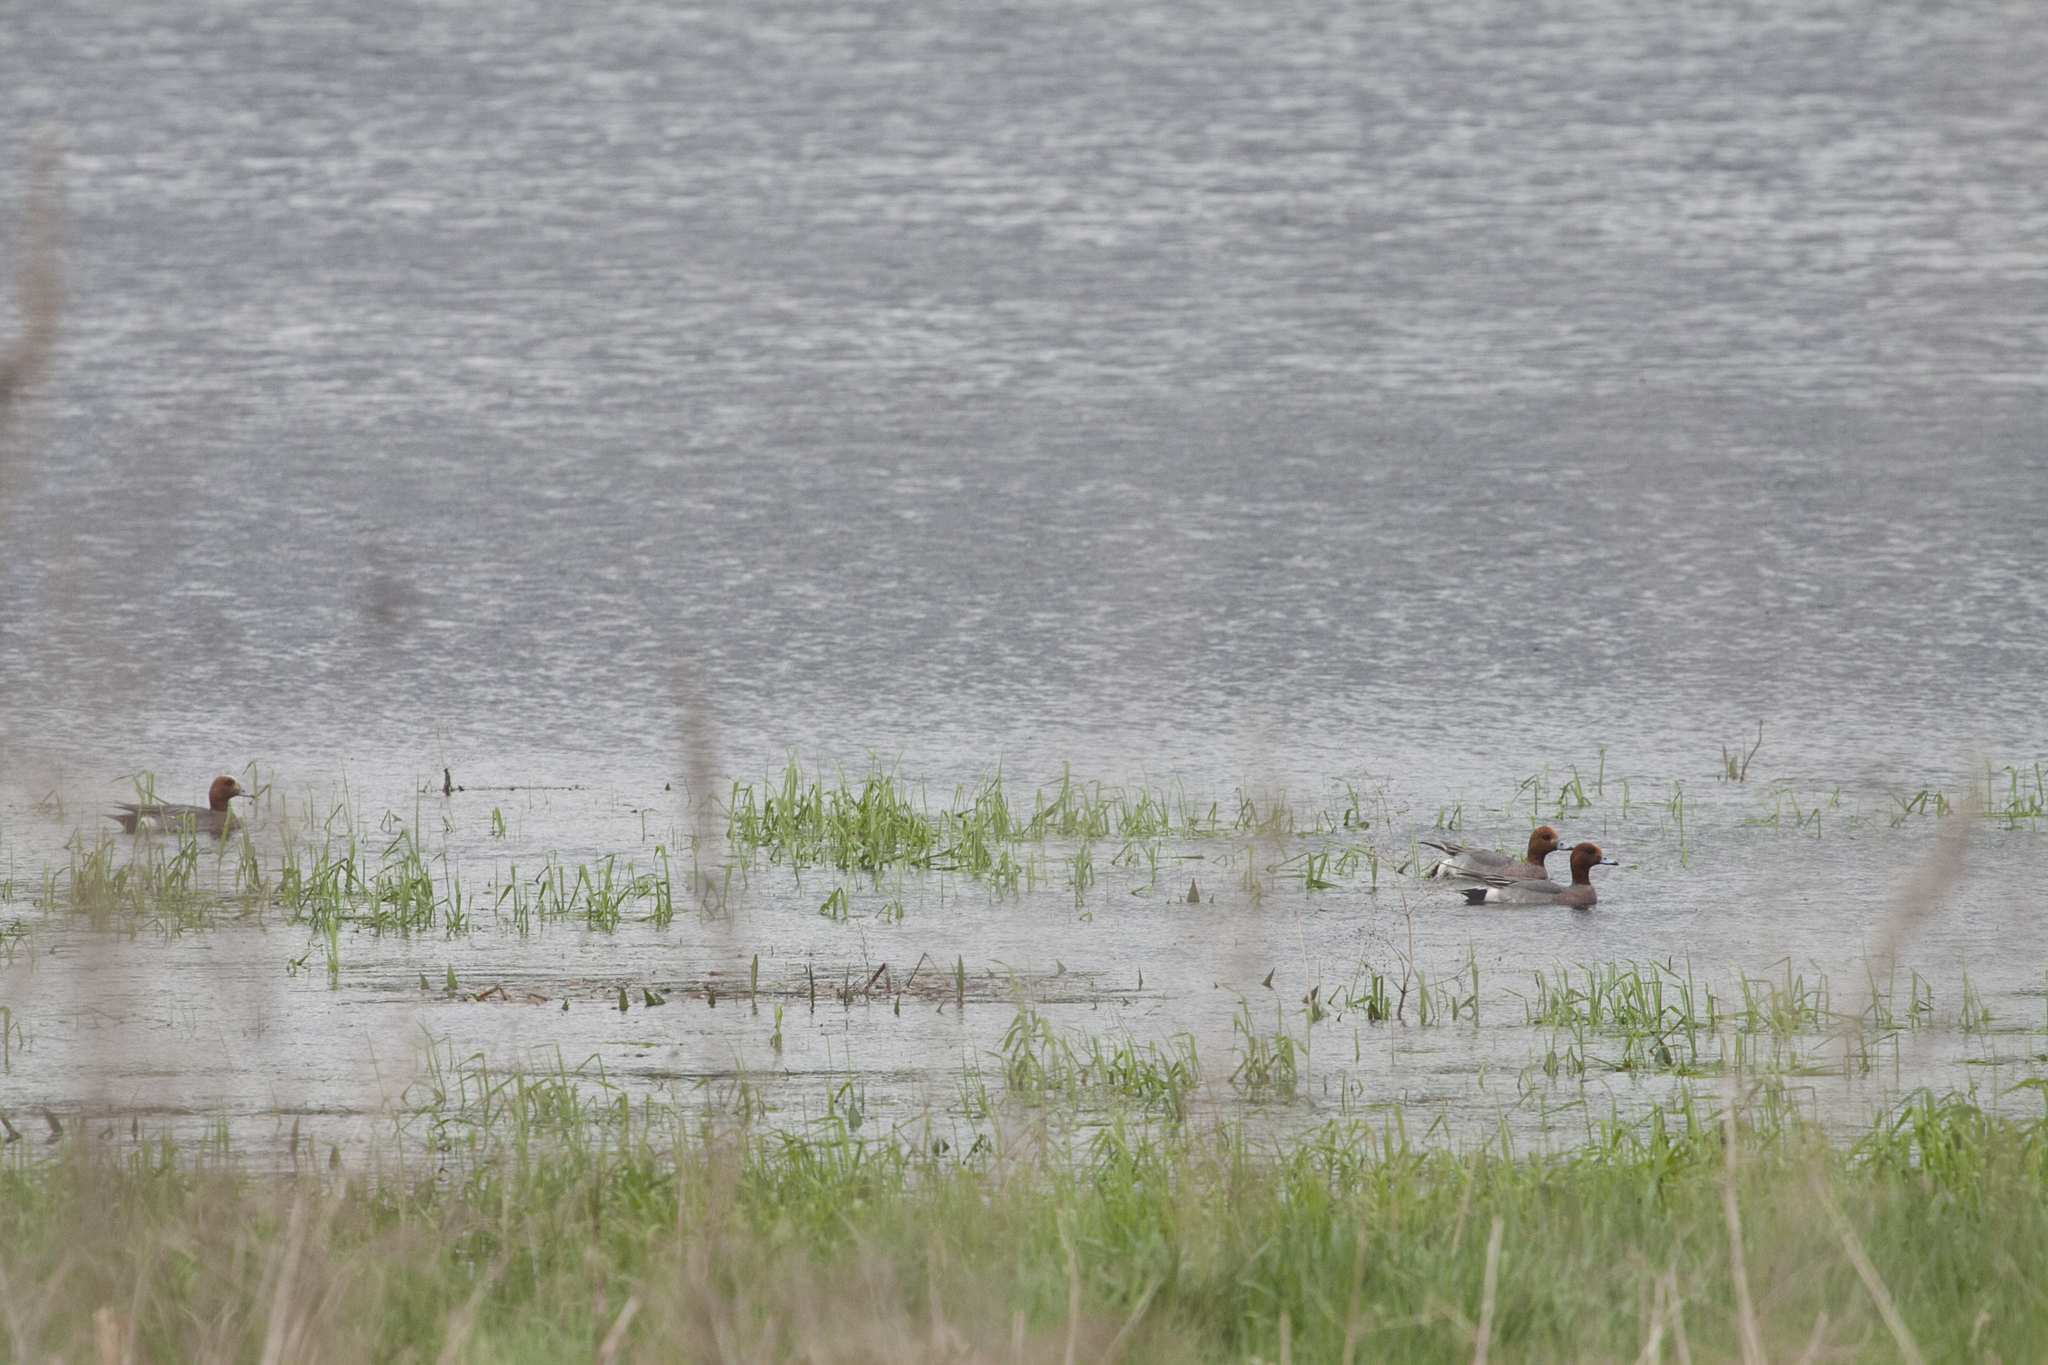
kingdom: Animalia
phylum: Chordata
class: Aves
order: Anseriformes
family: Anatidae
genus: Mareca
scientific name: Mareca penelope
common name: Eurasian wigeon
